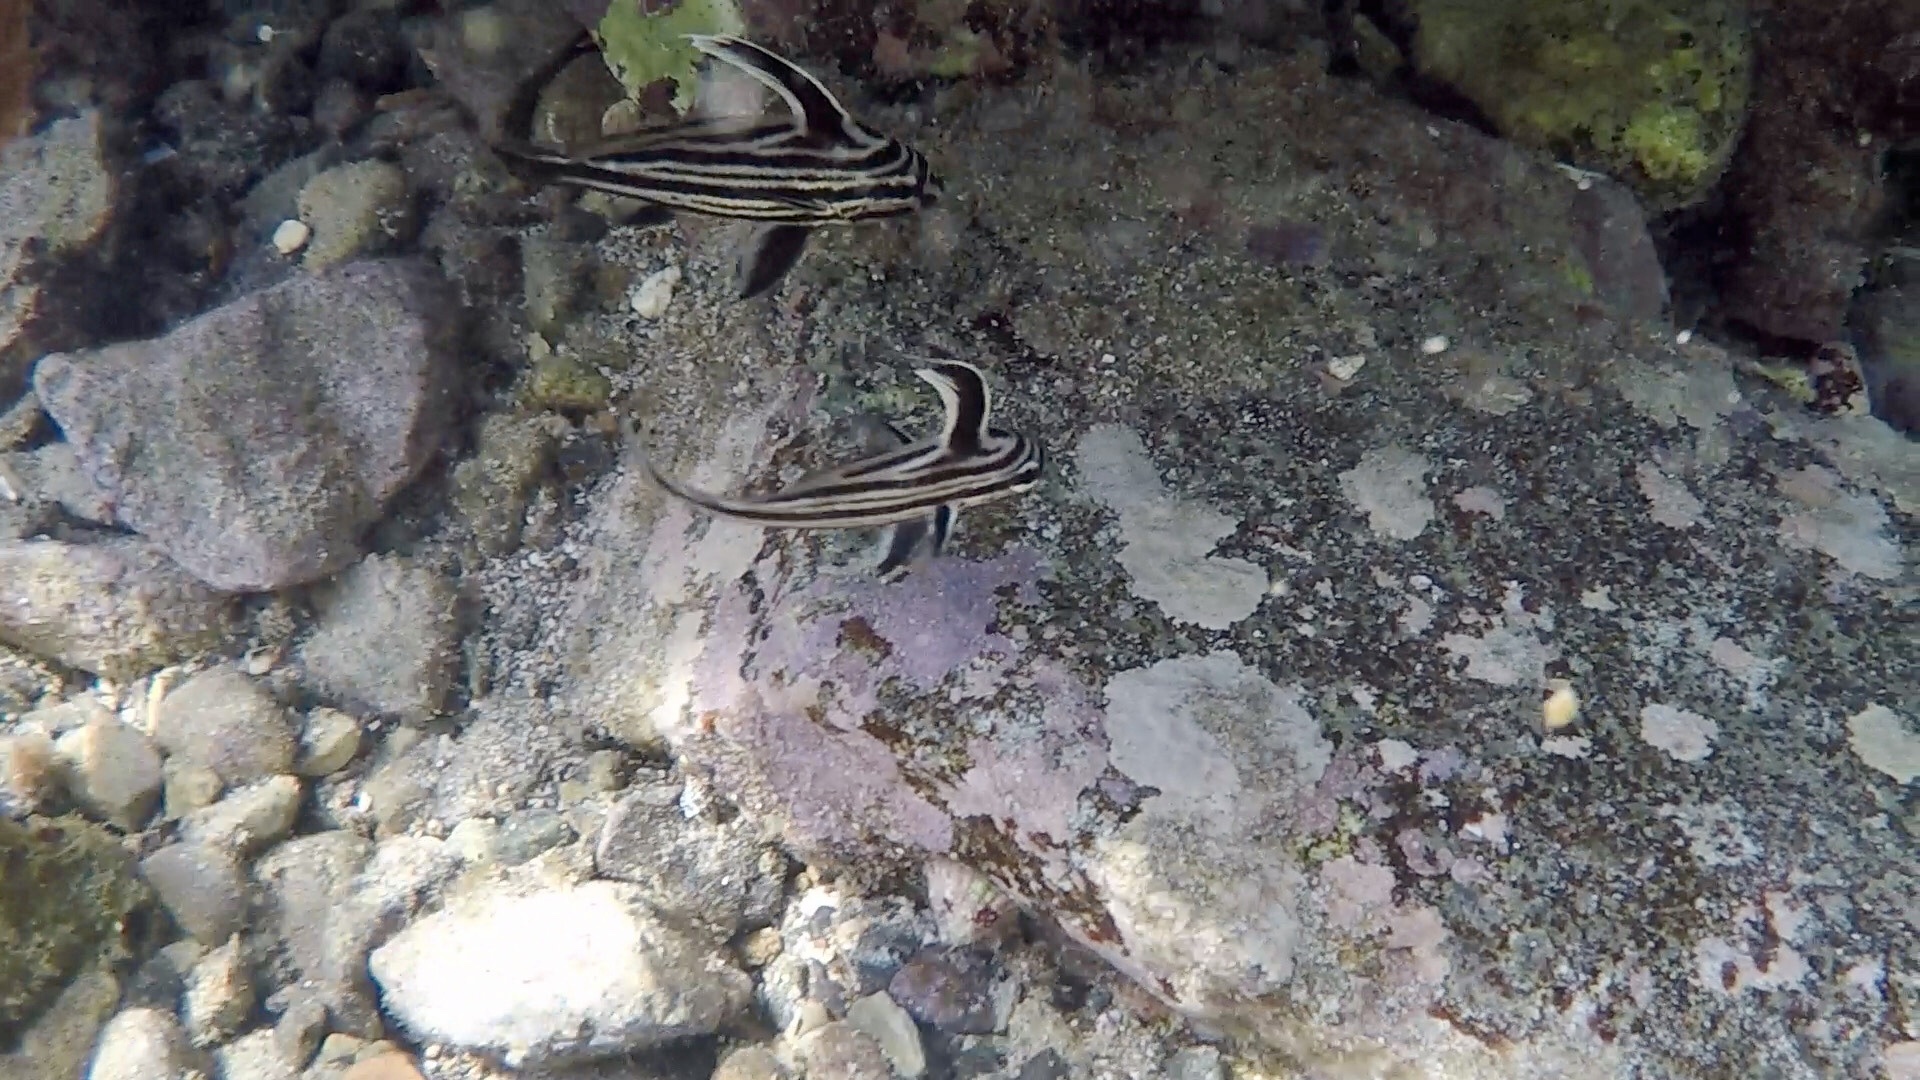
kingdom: Animalia
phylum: Chordata
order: Perciformes
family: Sciaenidae
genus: Pareques
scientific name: Pareques acuminatus
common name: High-hat
